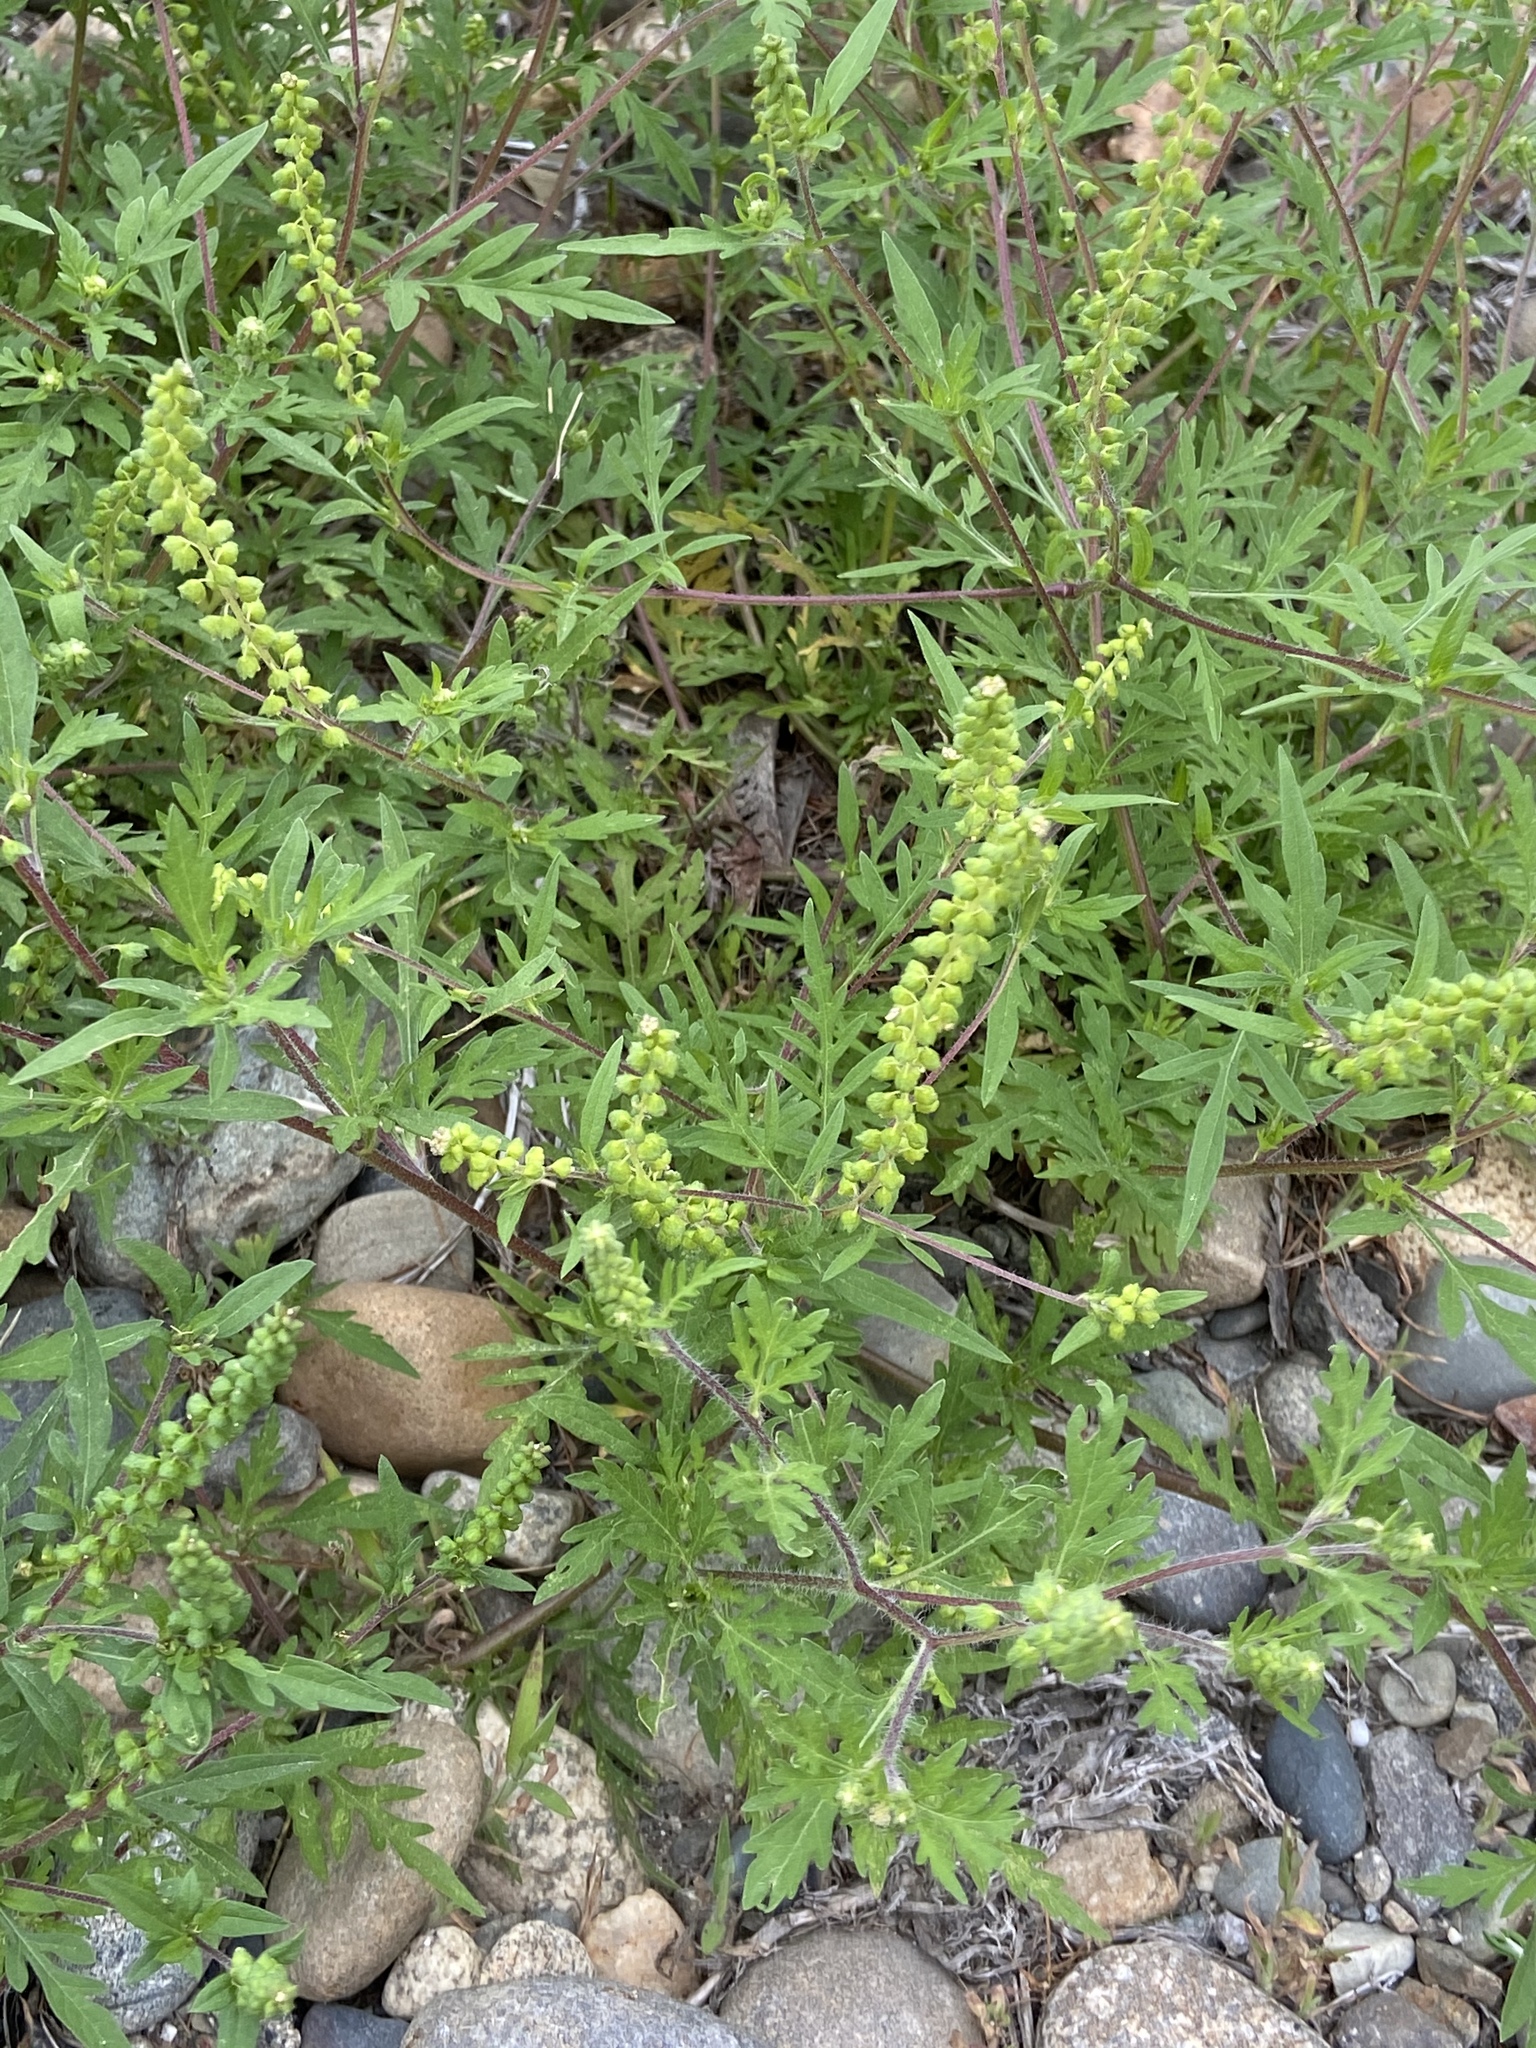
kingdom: Plantae
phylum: Tracheophyta
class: Magnoliopsida
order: Asterales
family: Asteraceae
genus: Ambrosia
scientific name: Ambrosia artemisiifolia
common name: Annual ragweed
